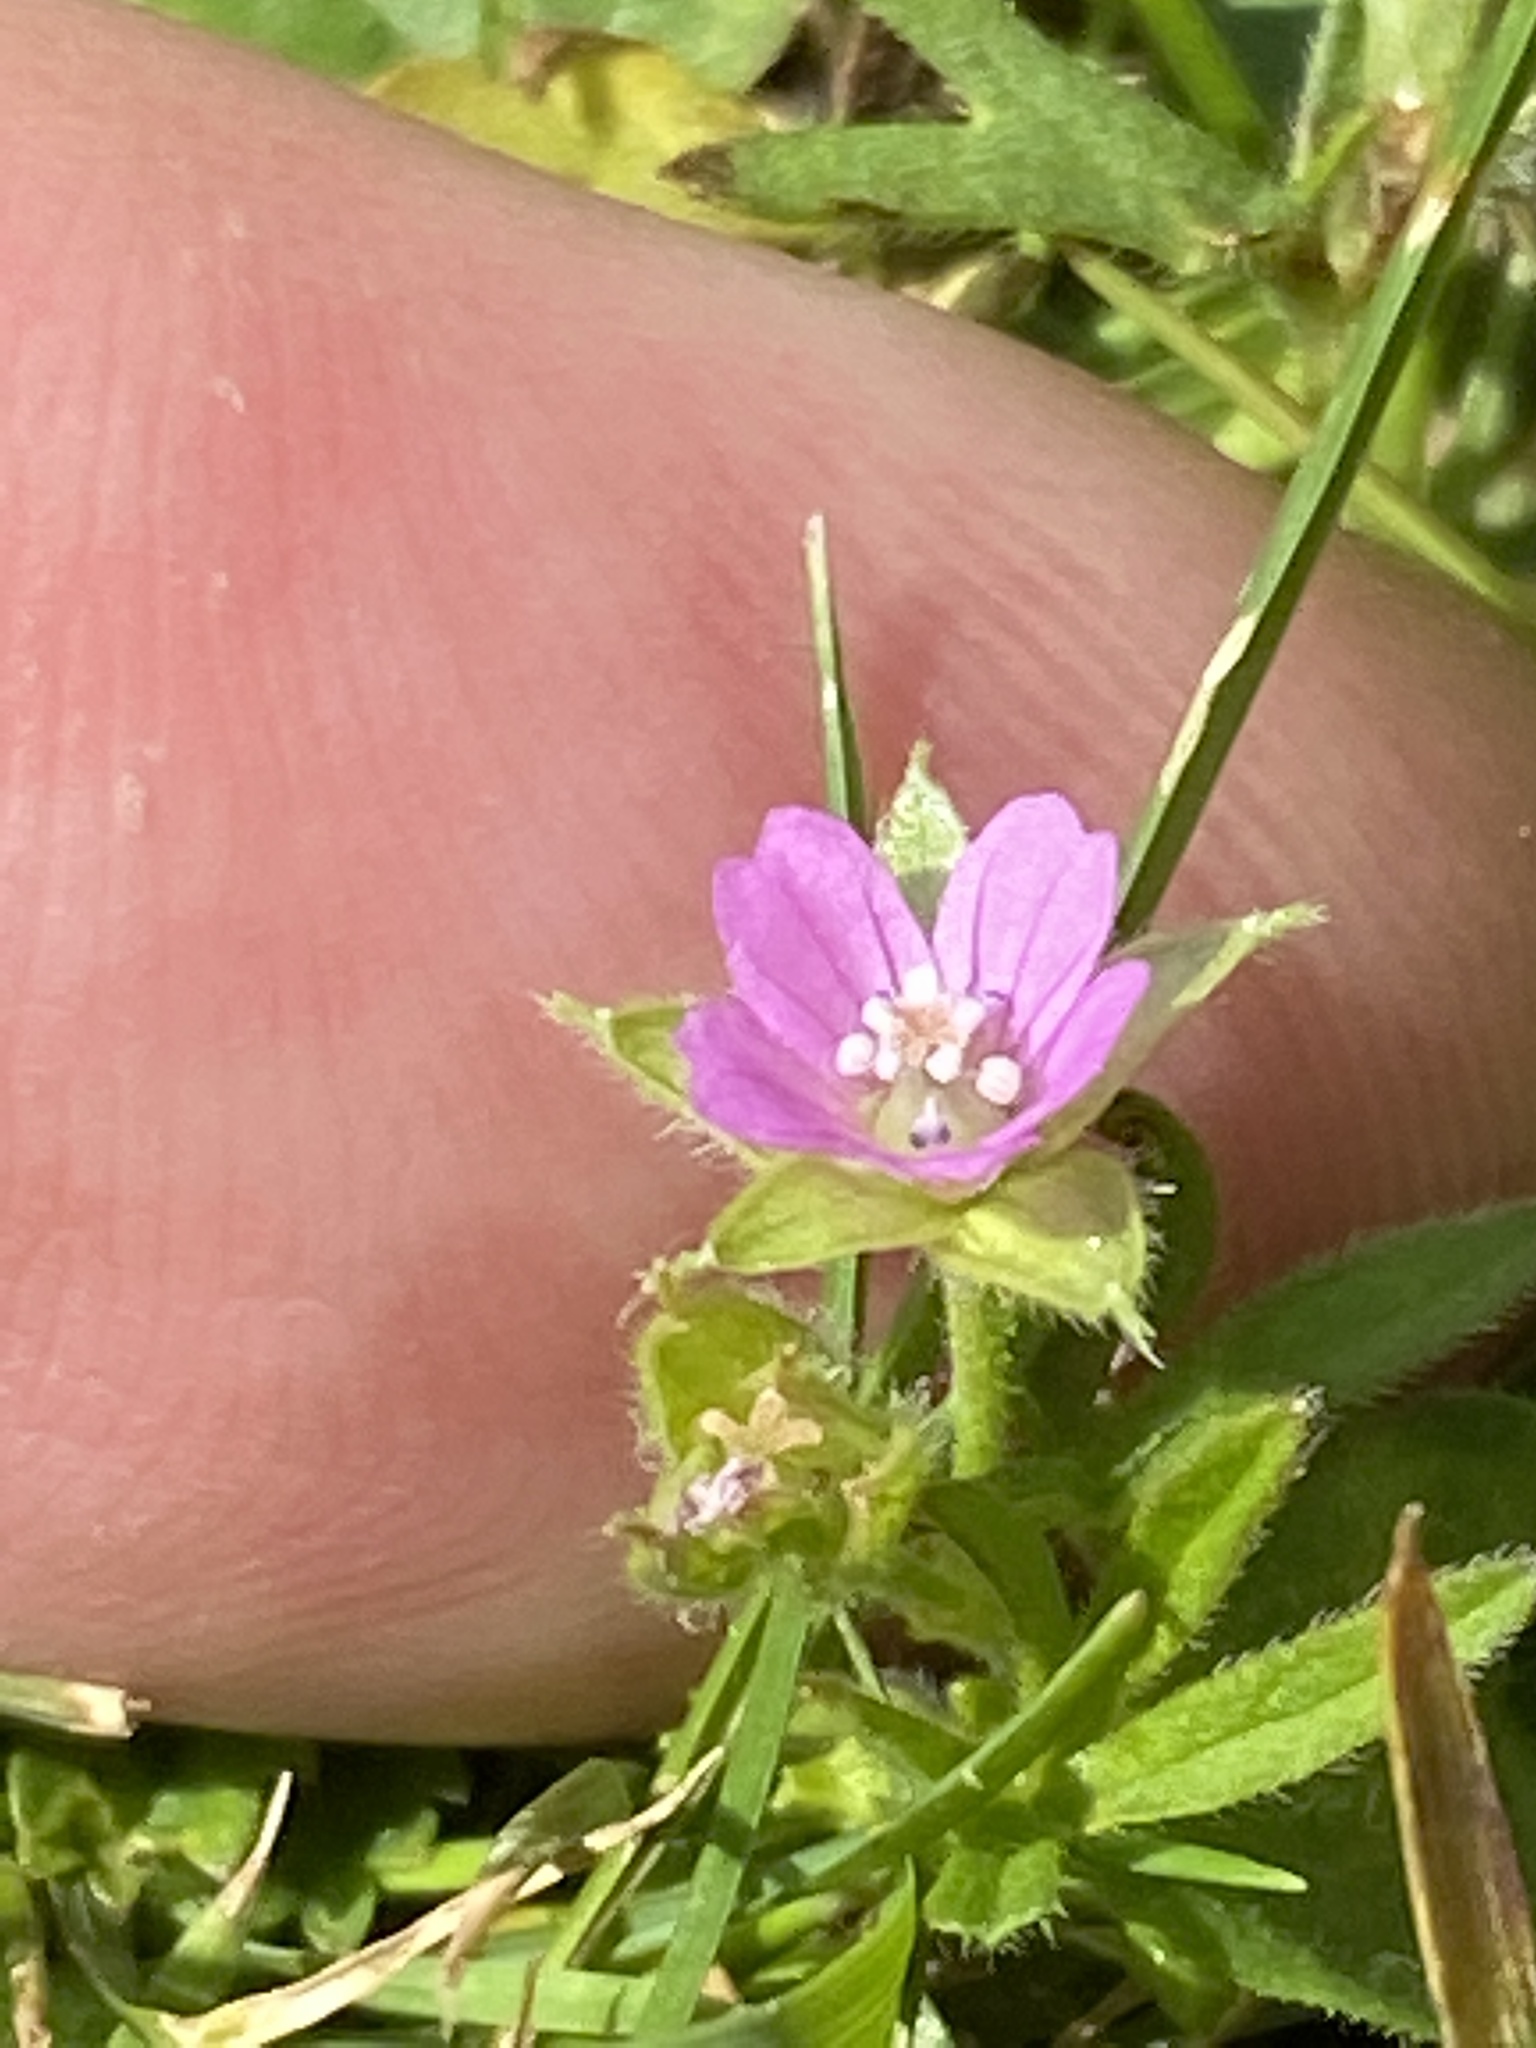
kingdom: Plantae
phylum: Tracheophyta
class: Magnoliopsida
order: Geraniales
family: Geraniaceae
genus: Geranium
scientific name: Geranium dissectum
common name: Cut-leaved crane's-bill
